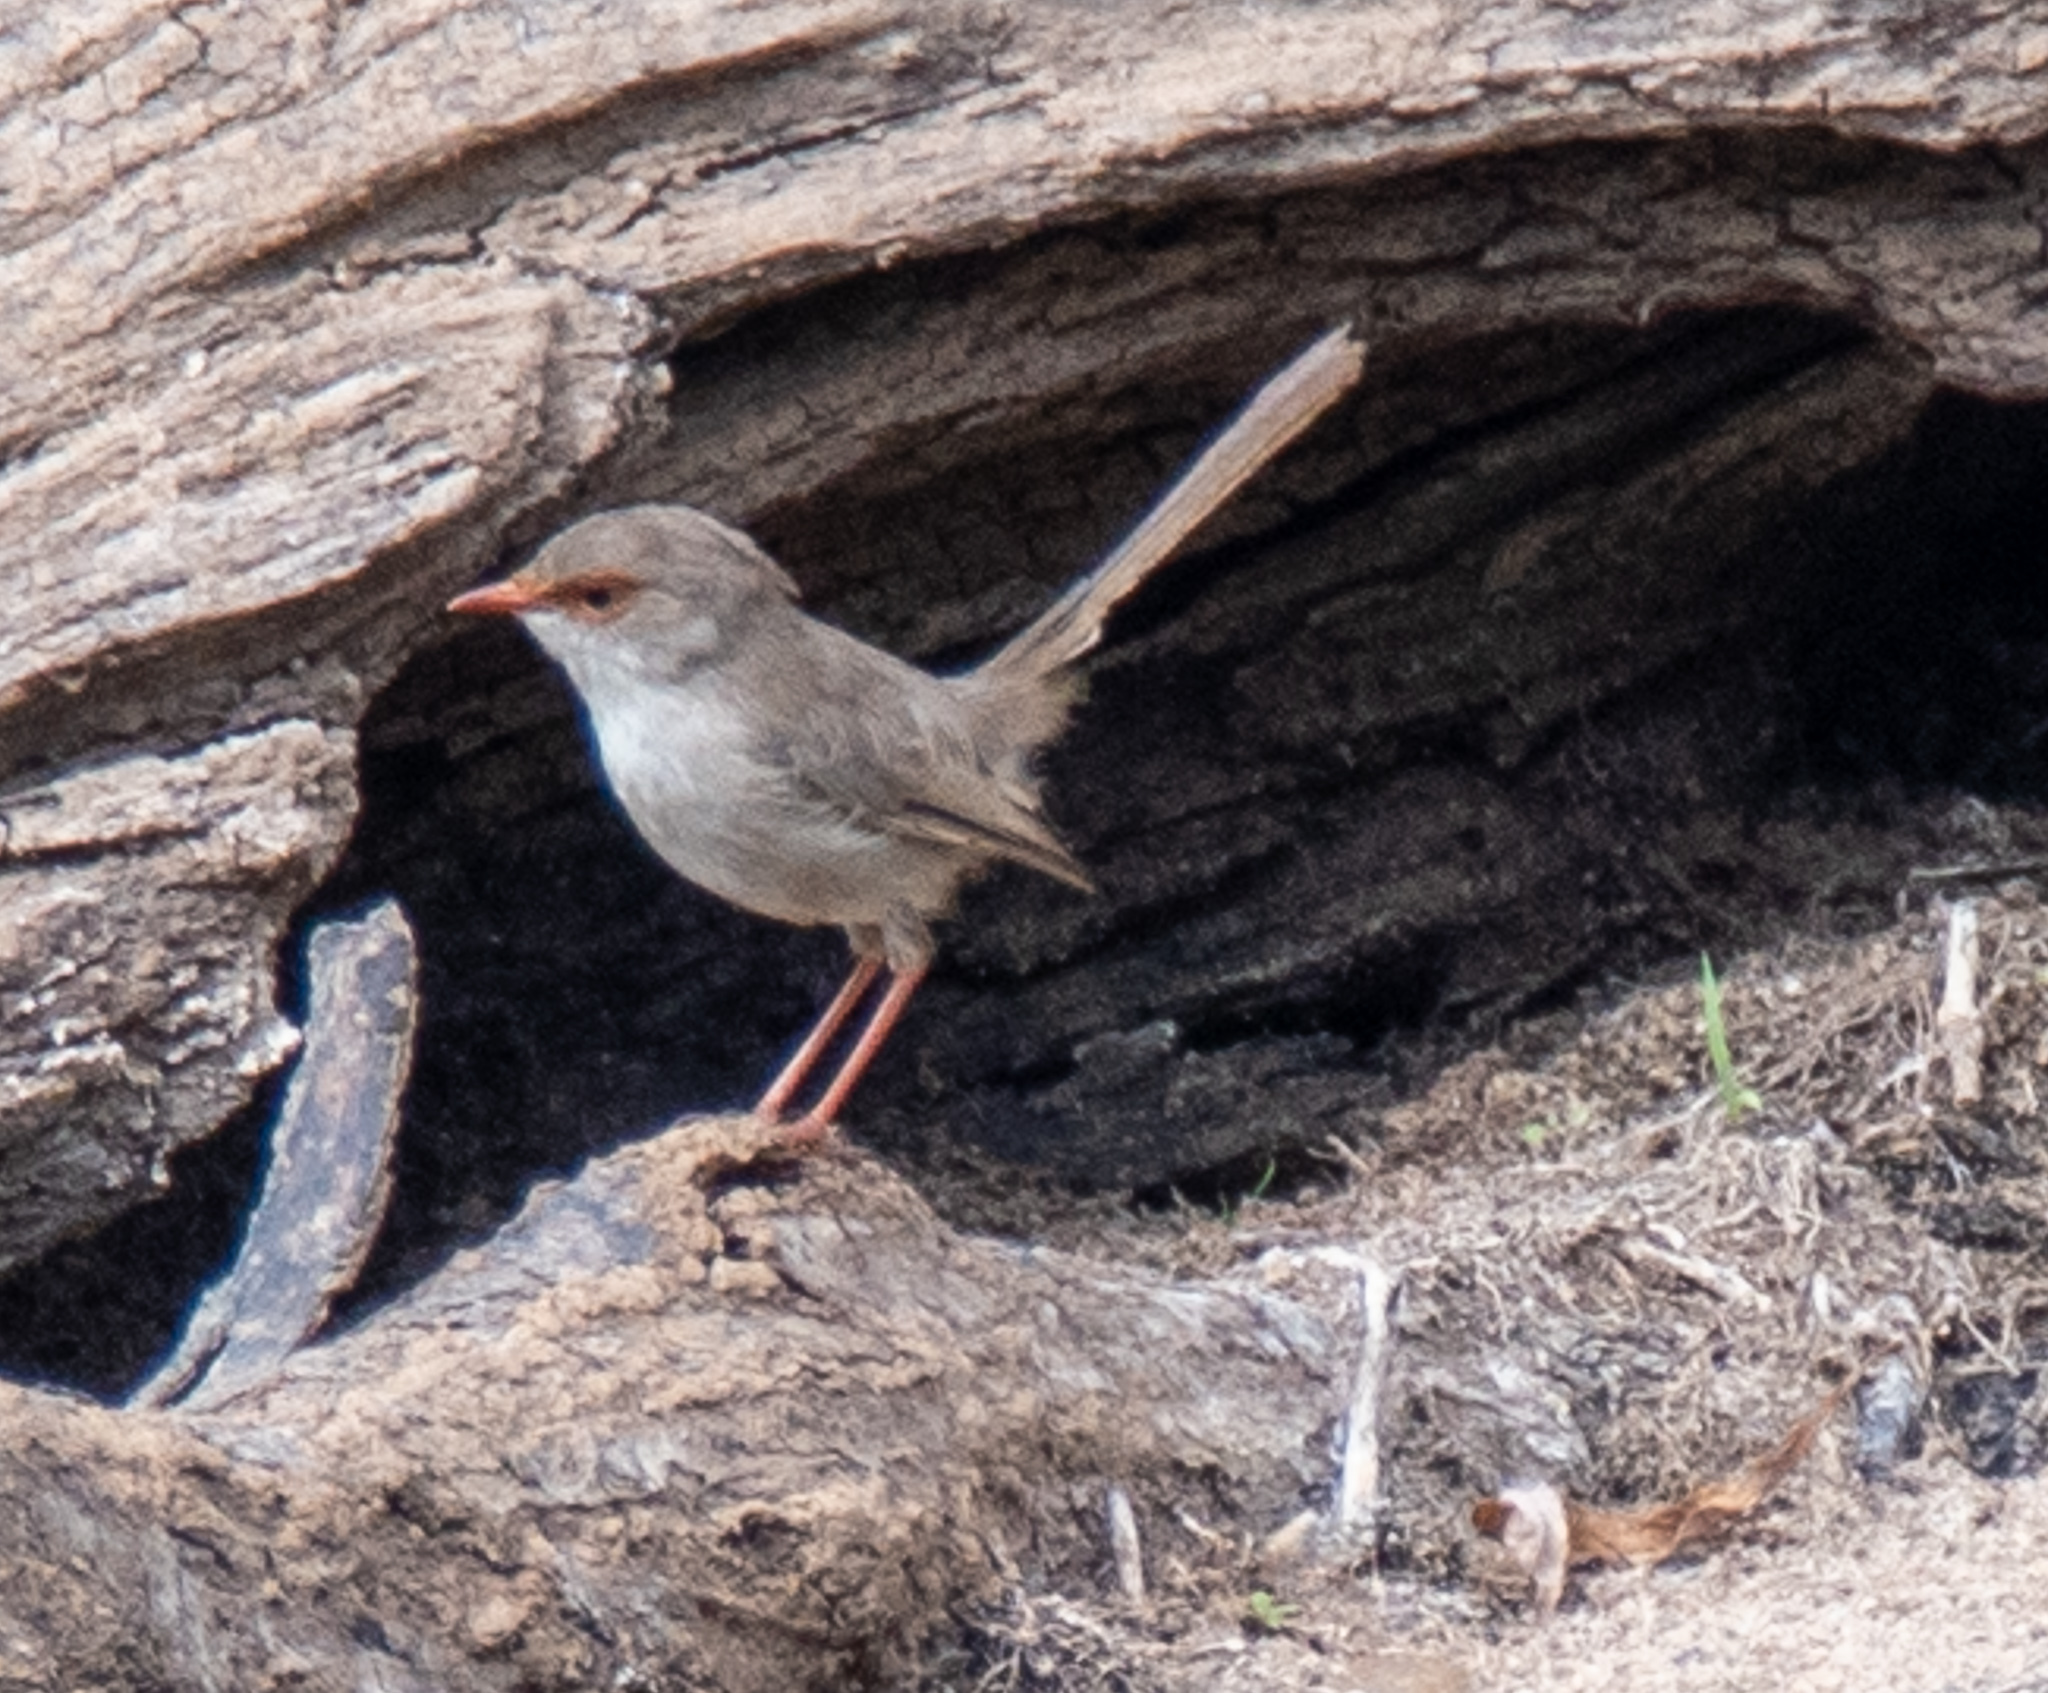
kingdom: Animalia
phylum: Chordata
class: Aves
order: Passeriformes
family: Maluridae
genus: Malurus
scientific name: Malurus cyaneus
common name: Superb fairywren
